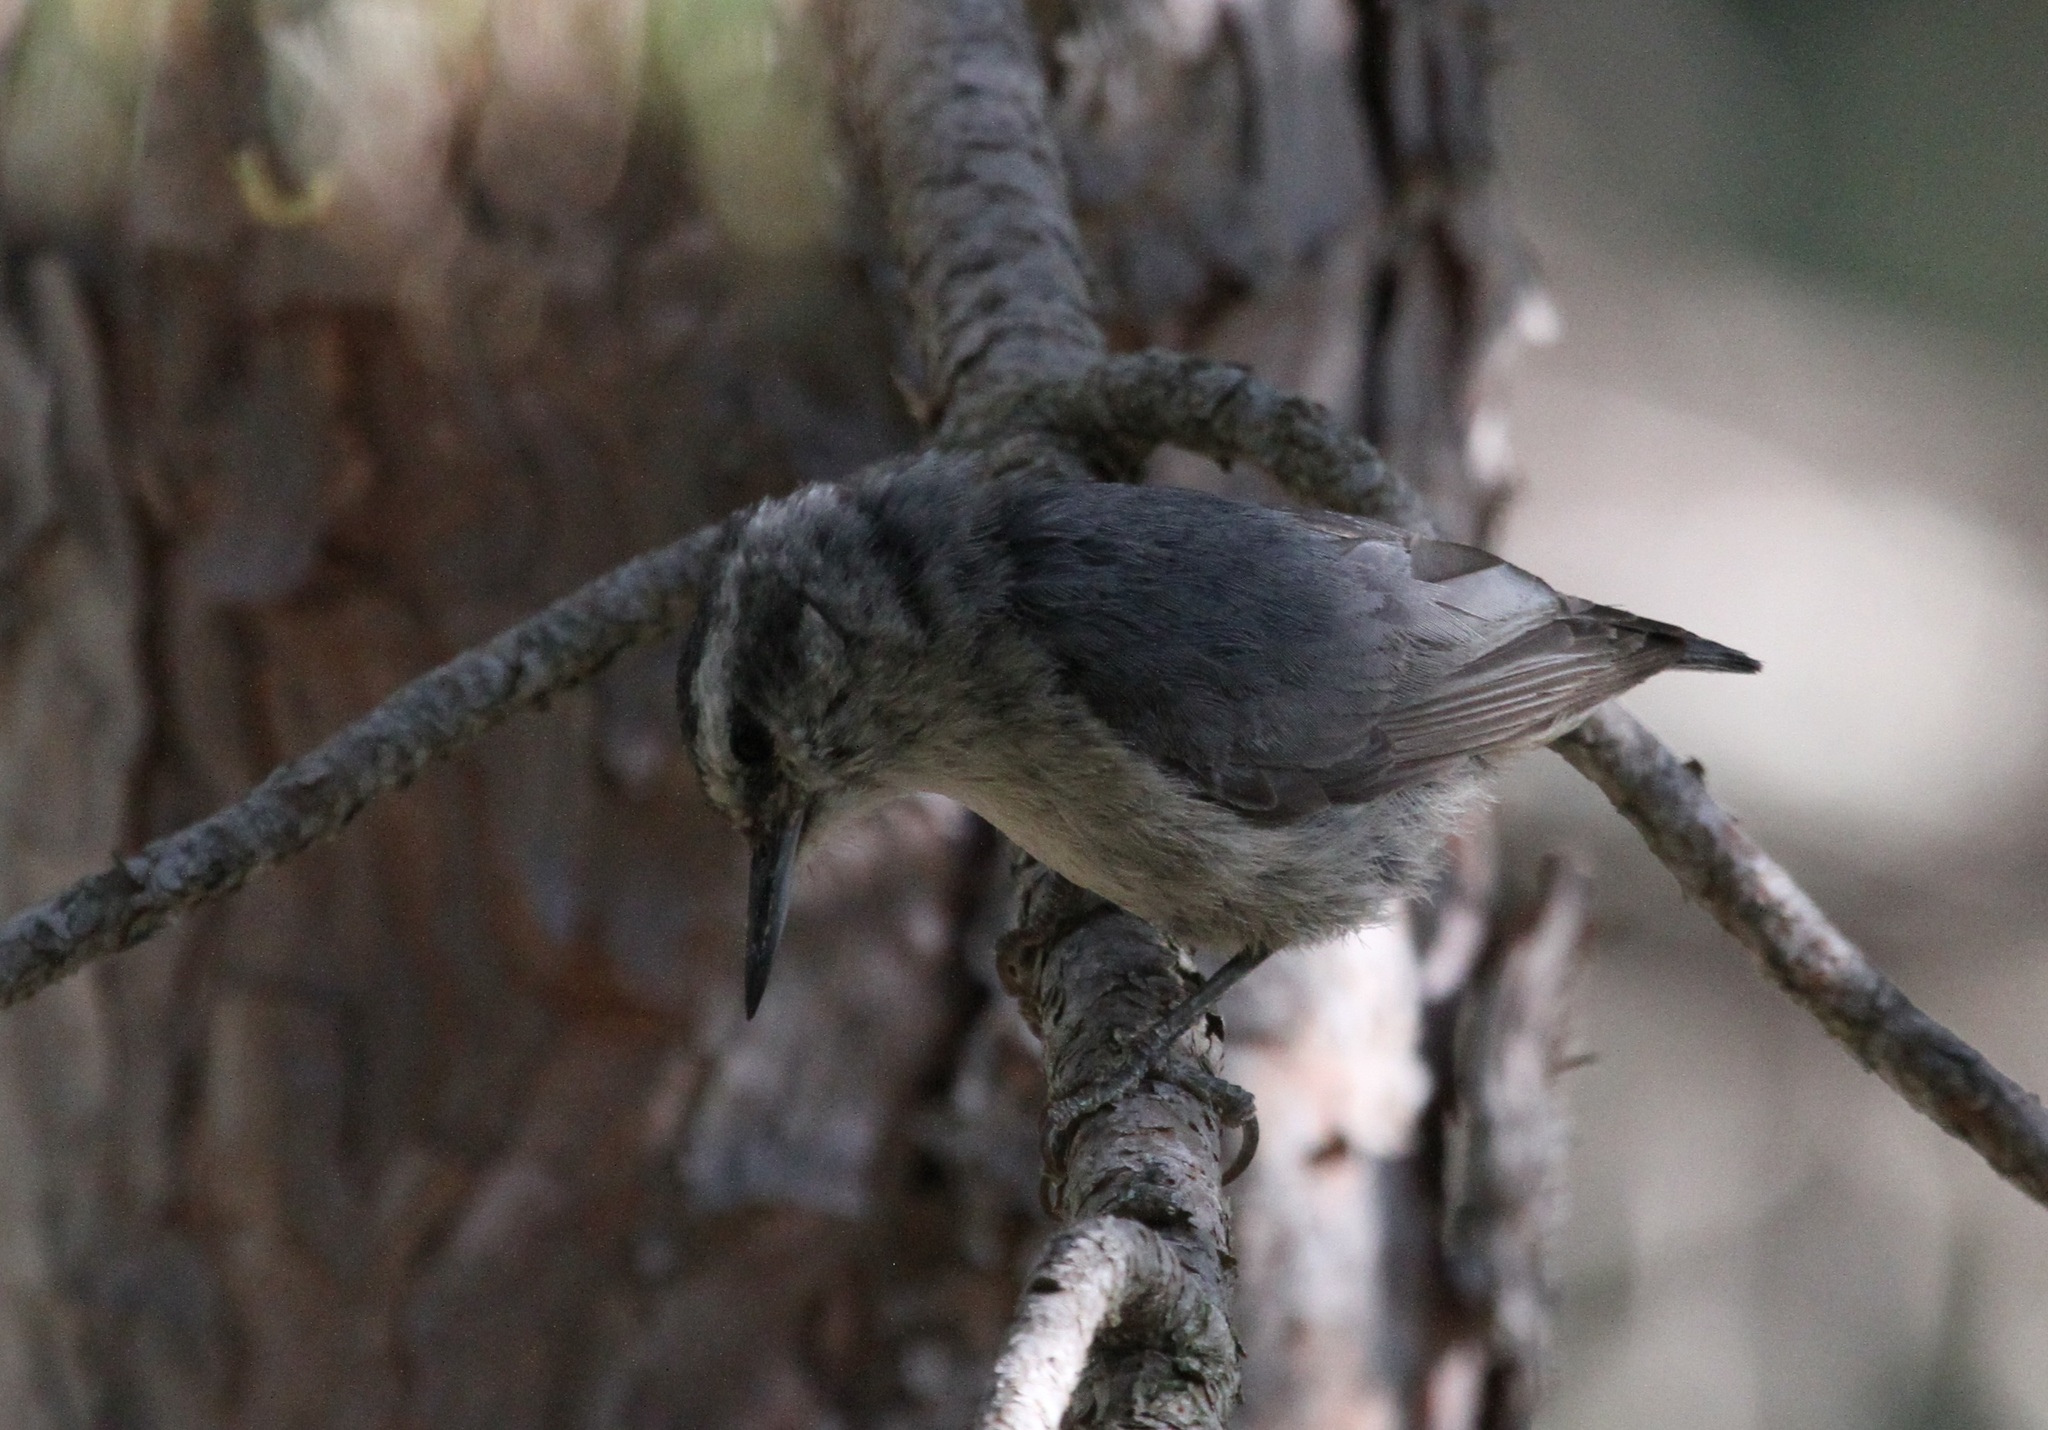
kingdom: Animalia
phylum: Chordata
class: Aves
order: Passeriformes
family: Sittidae
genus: Sitta
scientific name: Sitta whiteheadi
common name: Corsican nuthatch
